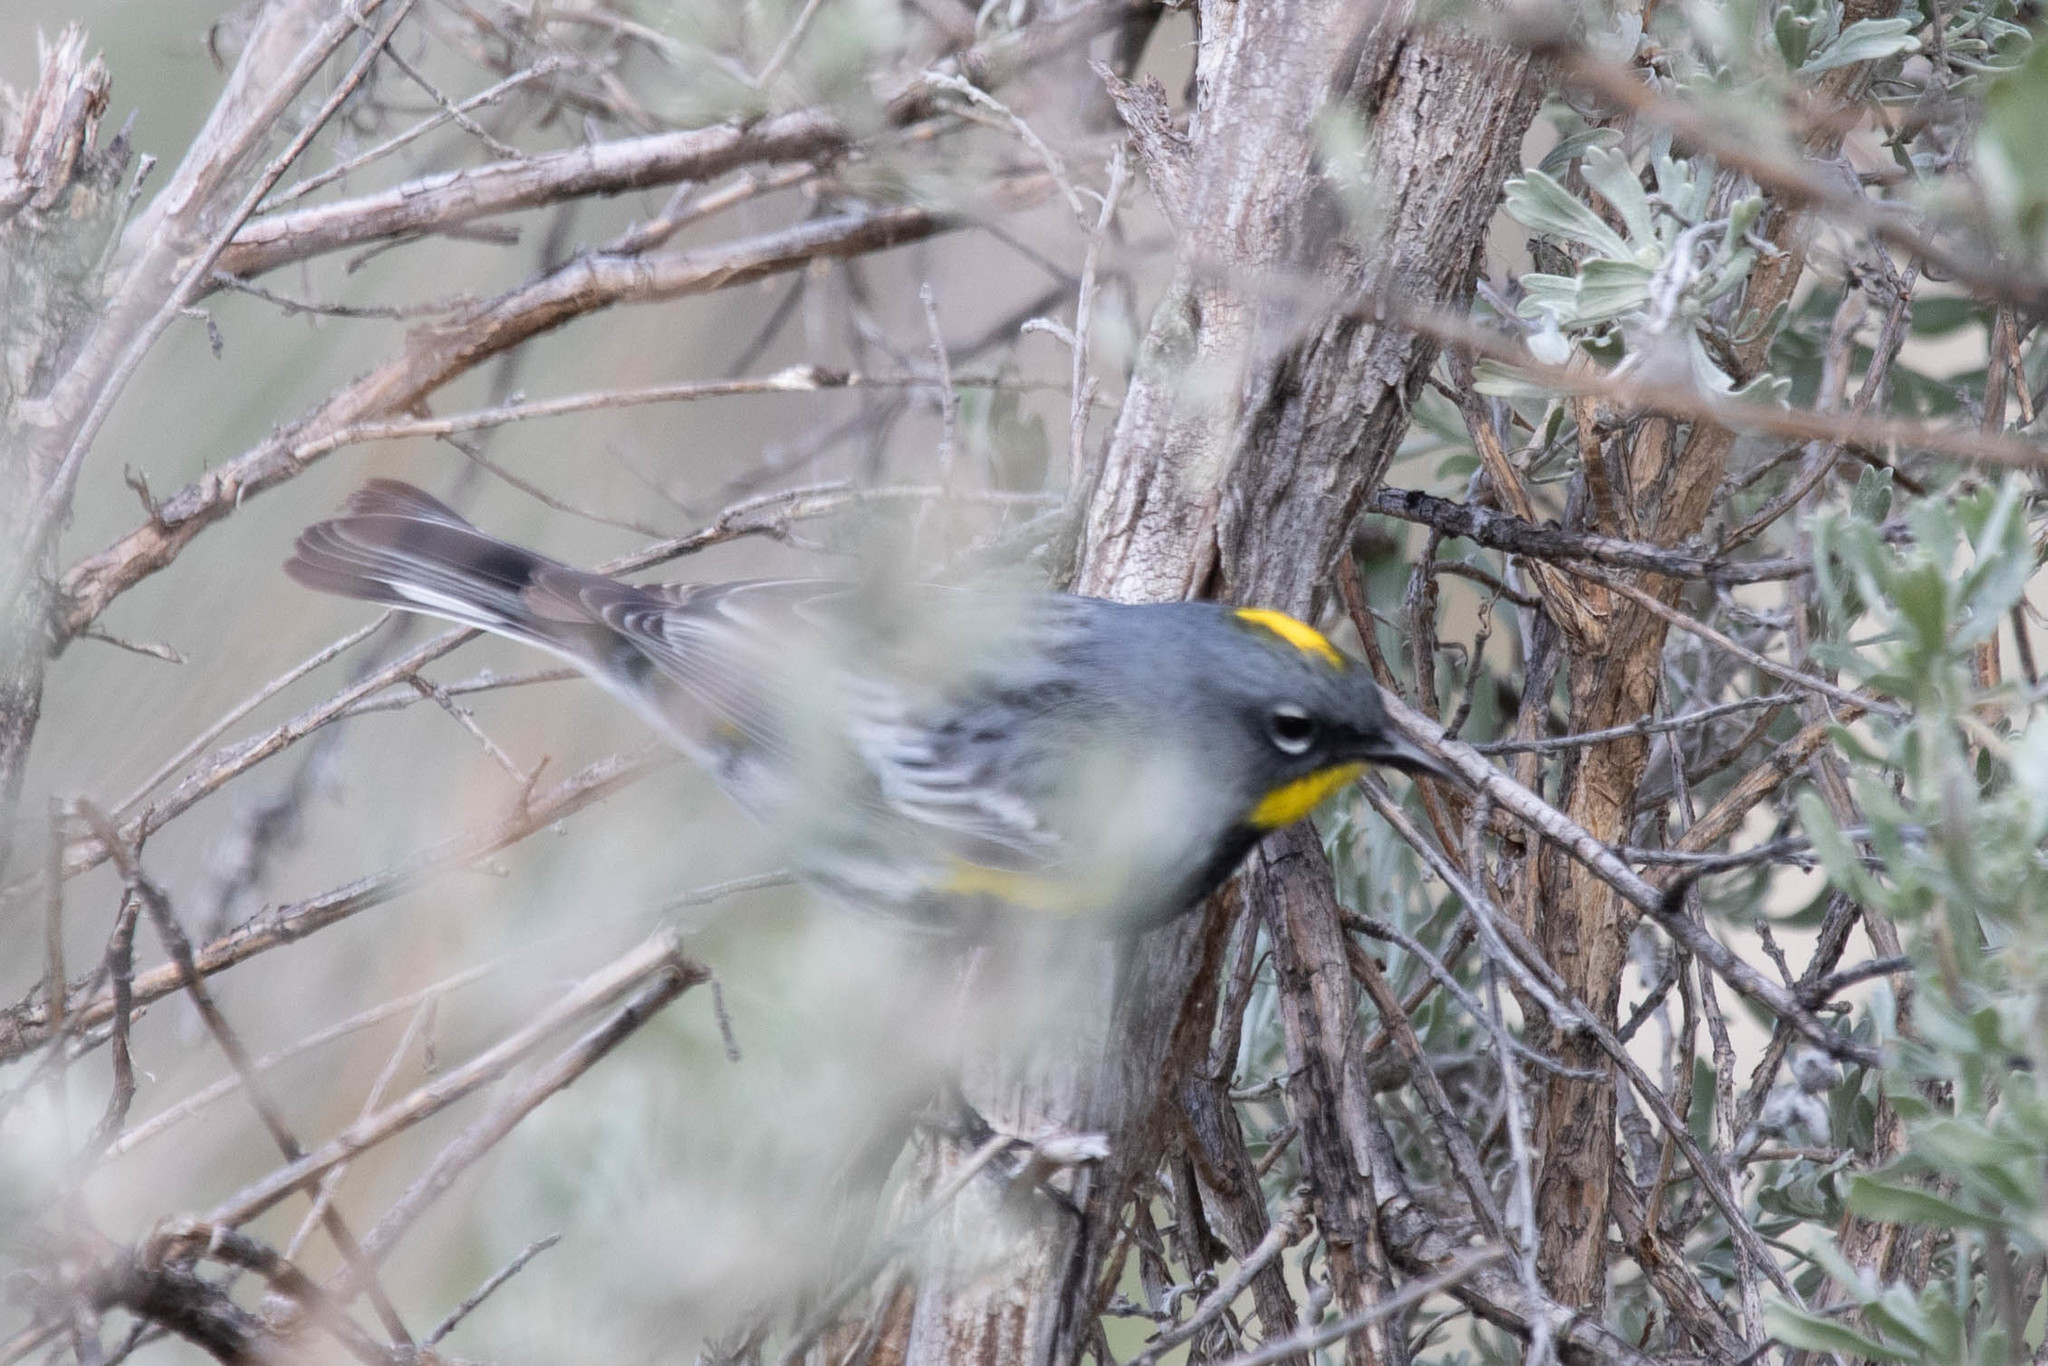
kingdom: Animalia
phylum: Chordata
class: Aves
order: Passeriformes
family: Parulidae
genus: Setophaga
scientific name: Setophaga auduboni
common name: Audubon's warbler
